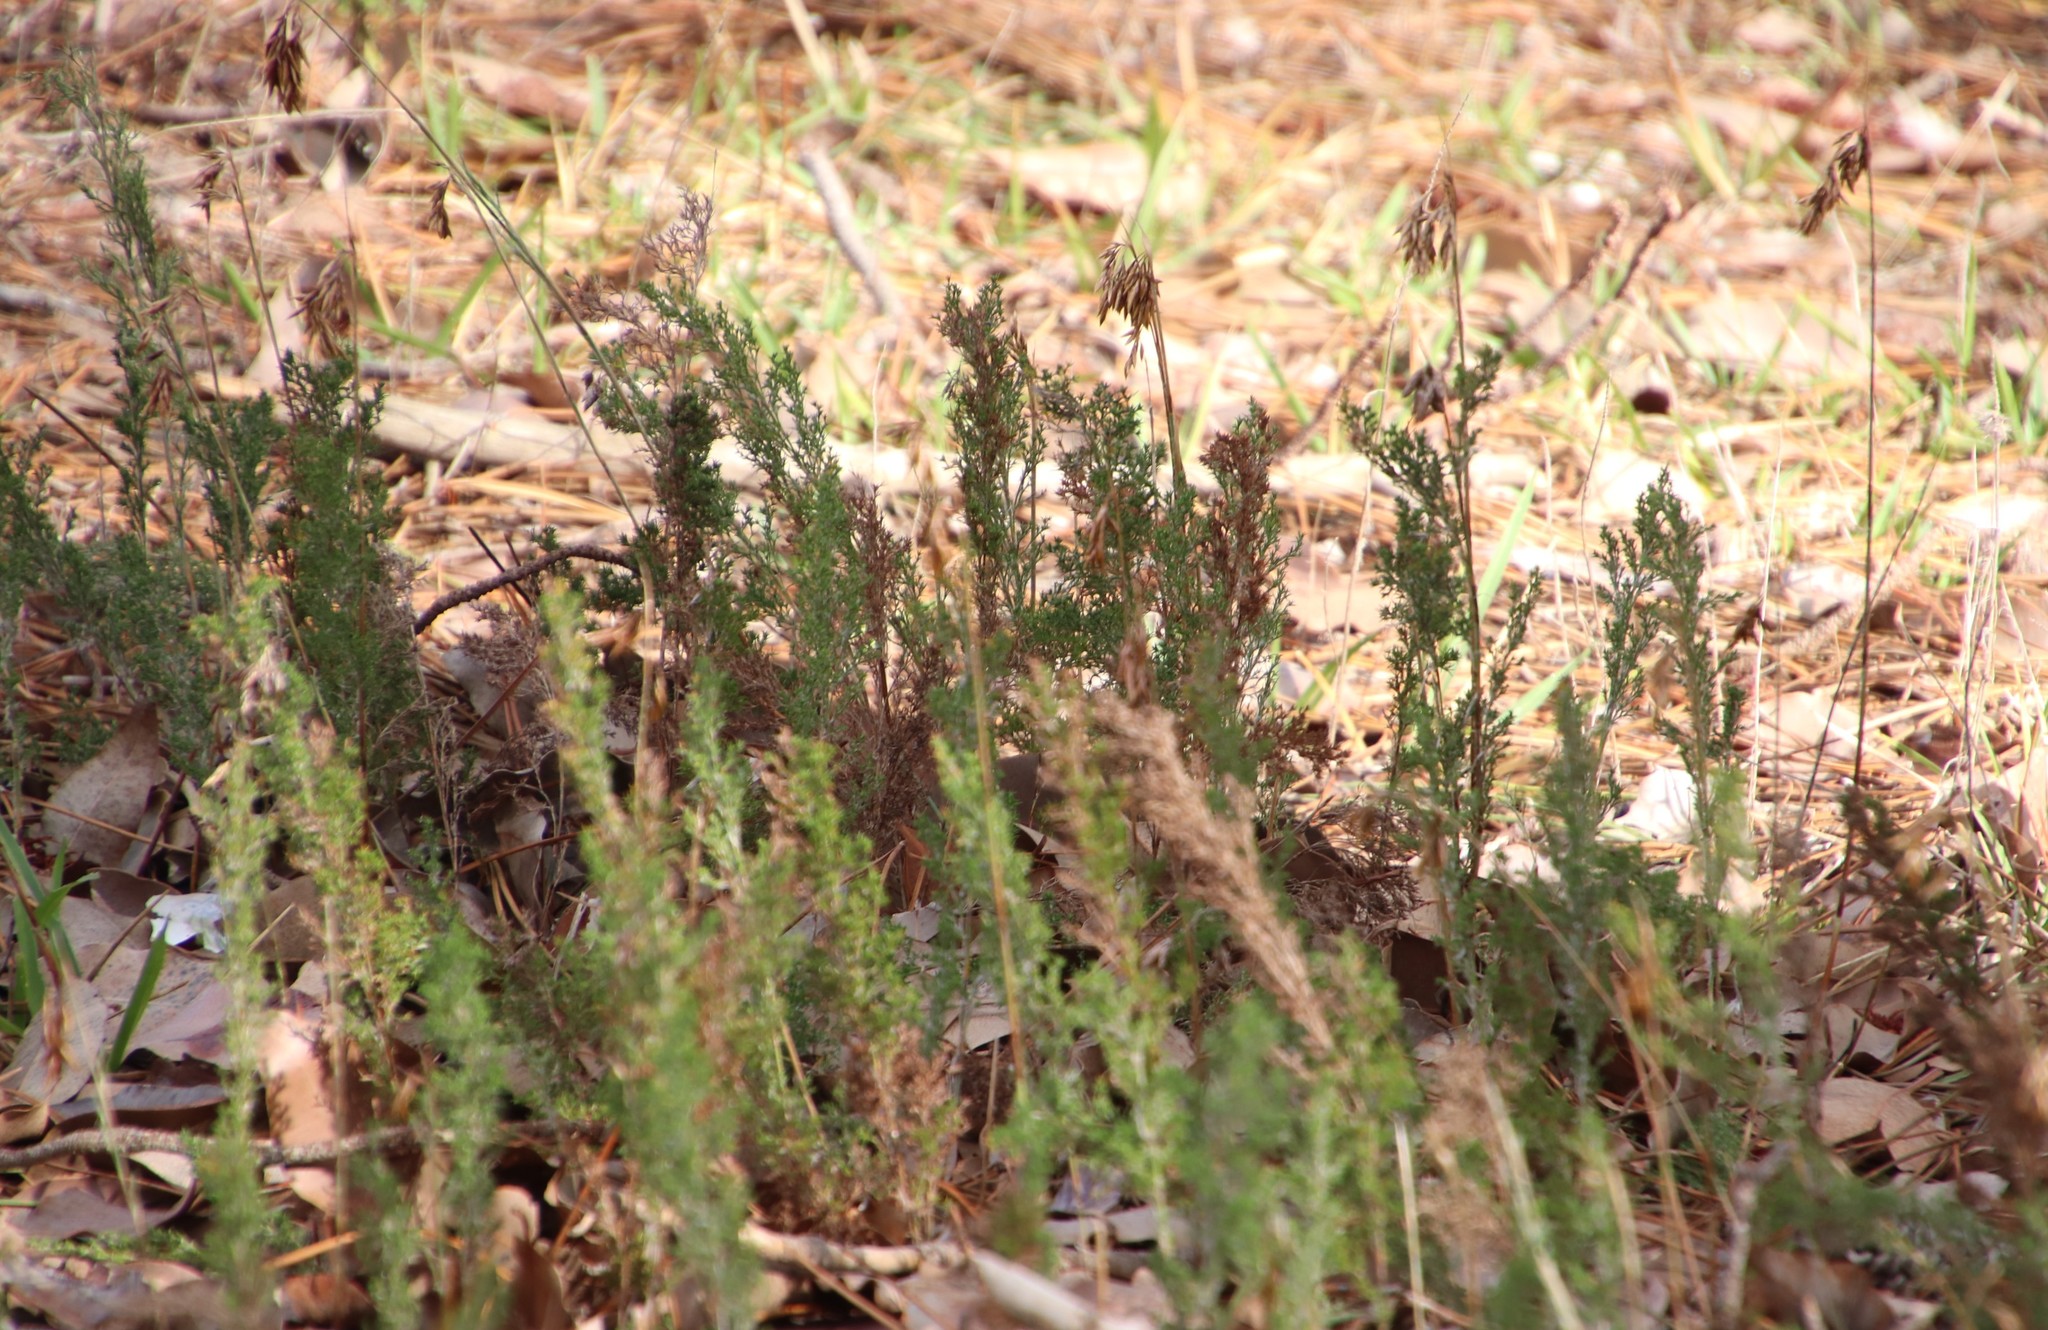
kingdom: Plantae
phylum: Tracheophyta
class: Liliopsida
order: Poales
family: Restionaceae
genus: Thamnochortus
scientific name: Thamnochortus fruticosus
